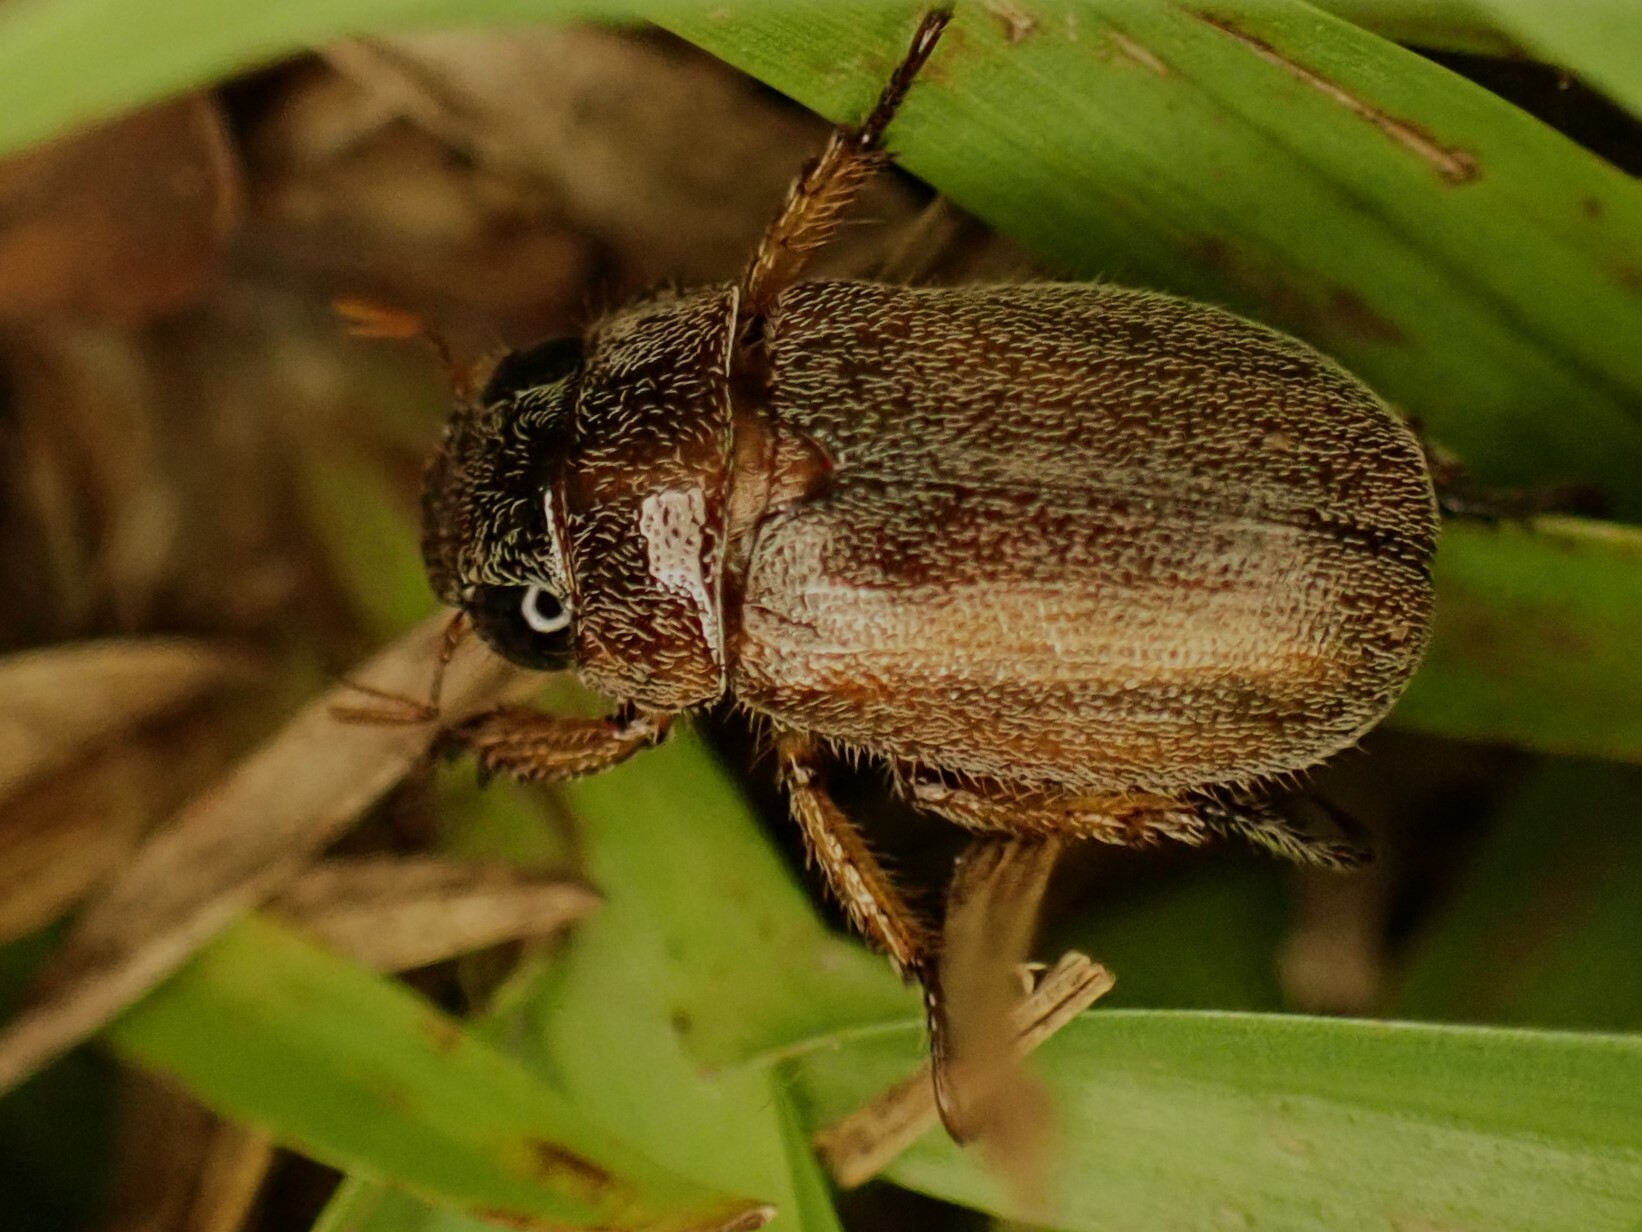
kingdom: Animalia
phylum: Arthropoda
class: Insecta
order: Coleoptera
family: Scarabaeidae
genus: Adoretus
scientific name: Adoretus versutus
